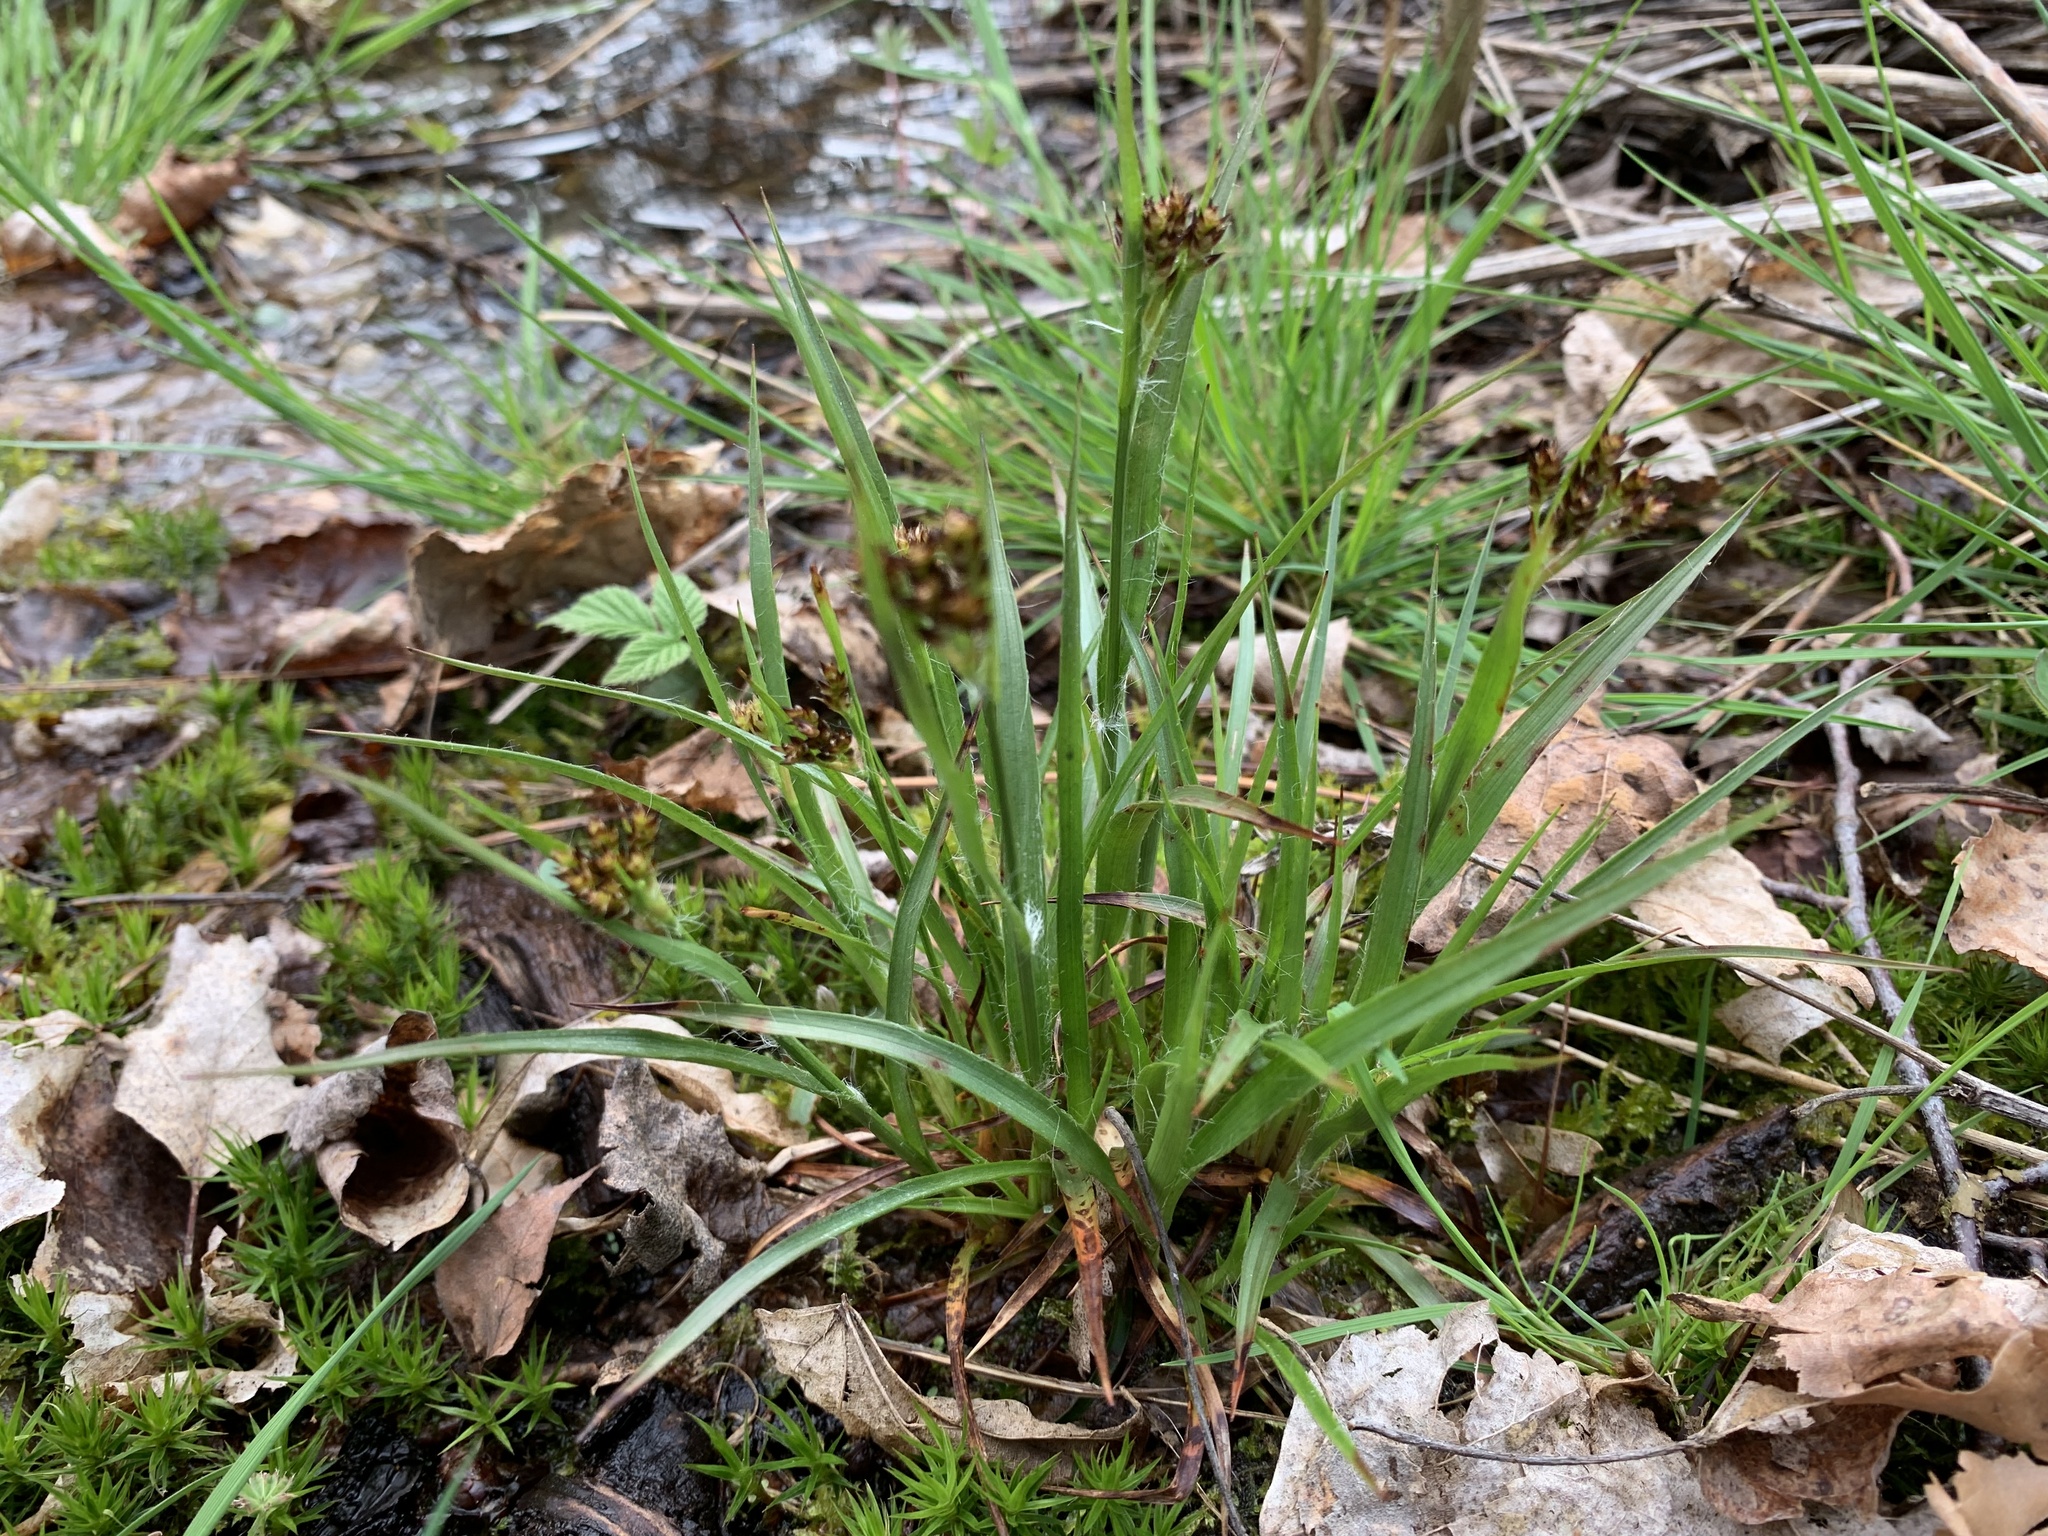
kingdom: Plantae
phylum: Tracheophyta
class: Liliopsida
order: Poales
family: Juncaceae
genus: Luzula
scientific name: Luzula multiflora
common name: Heath wood-rush
